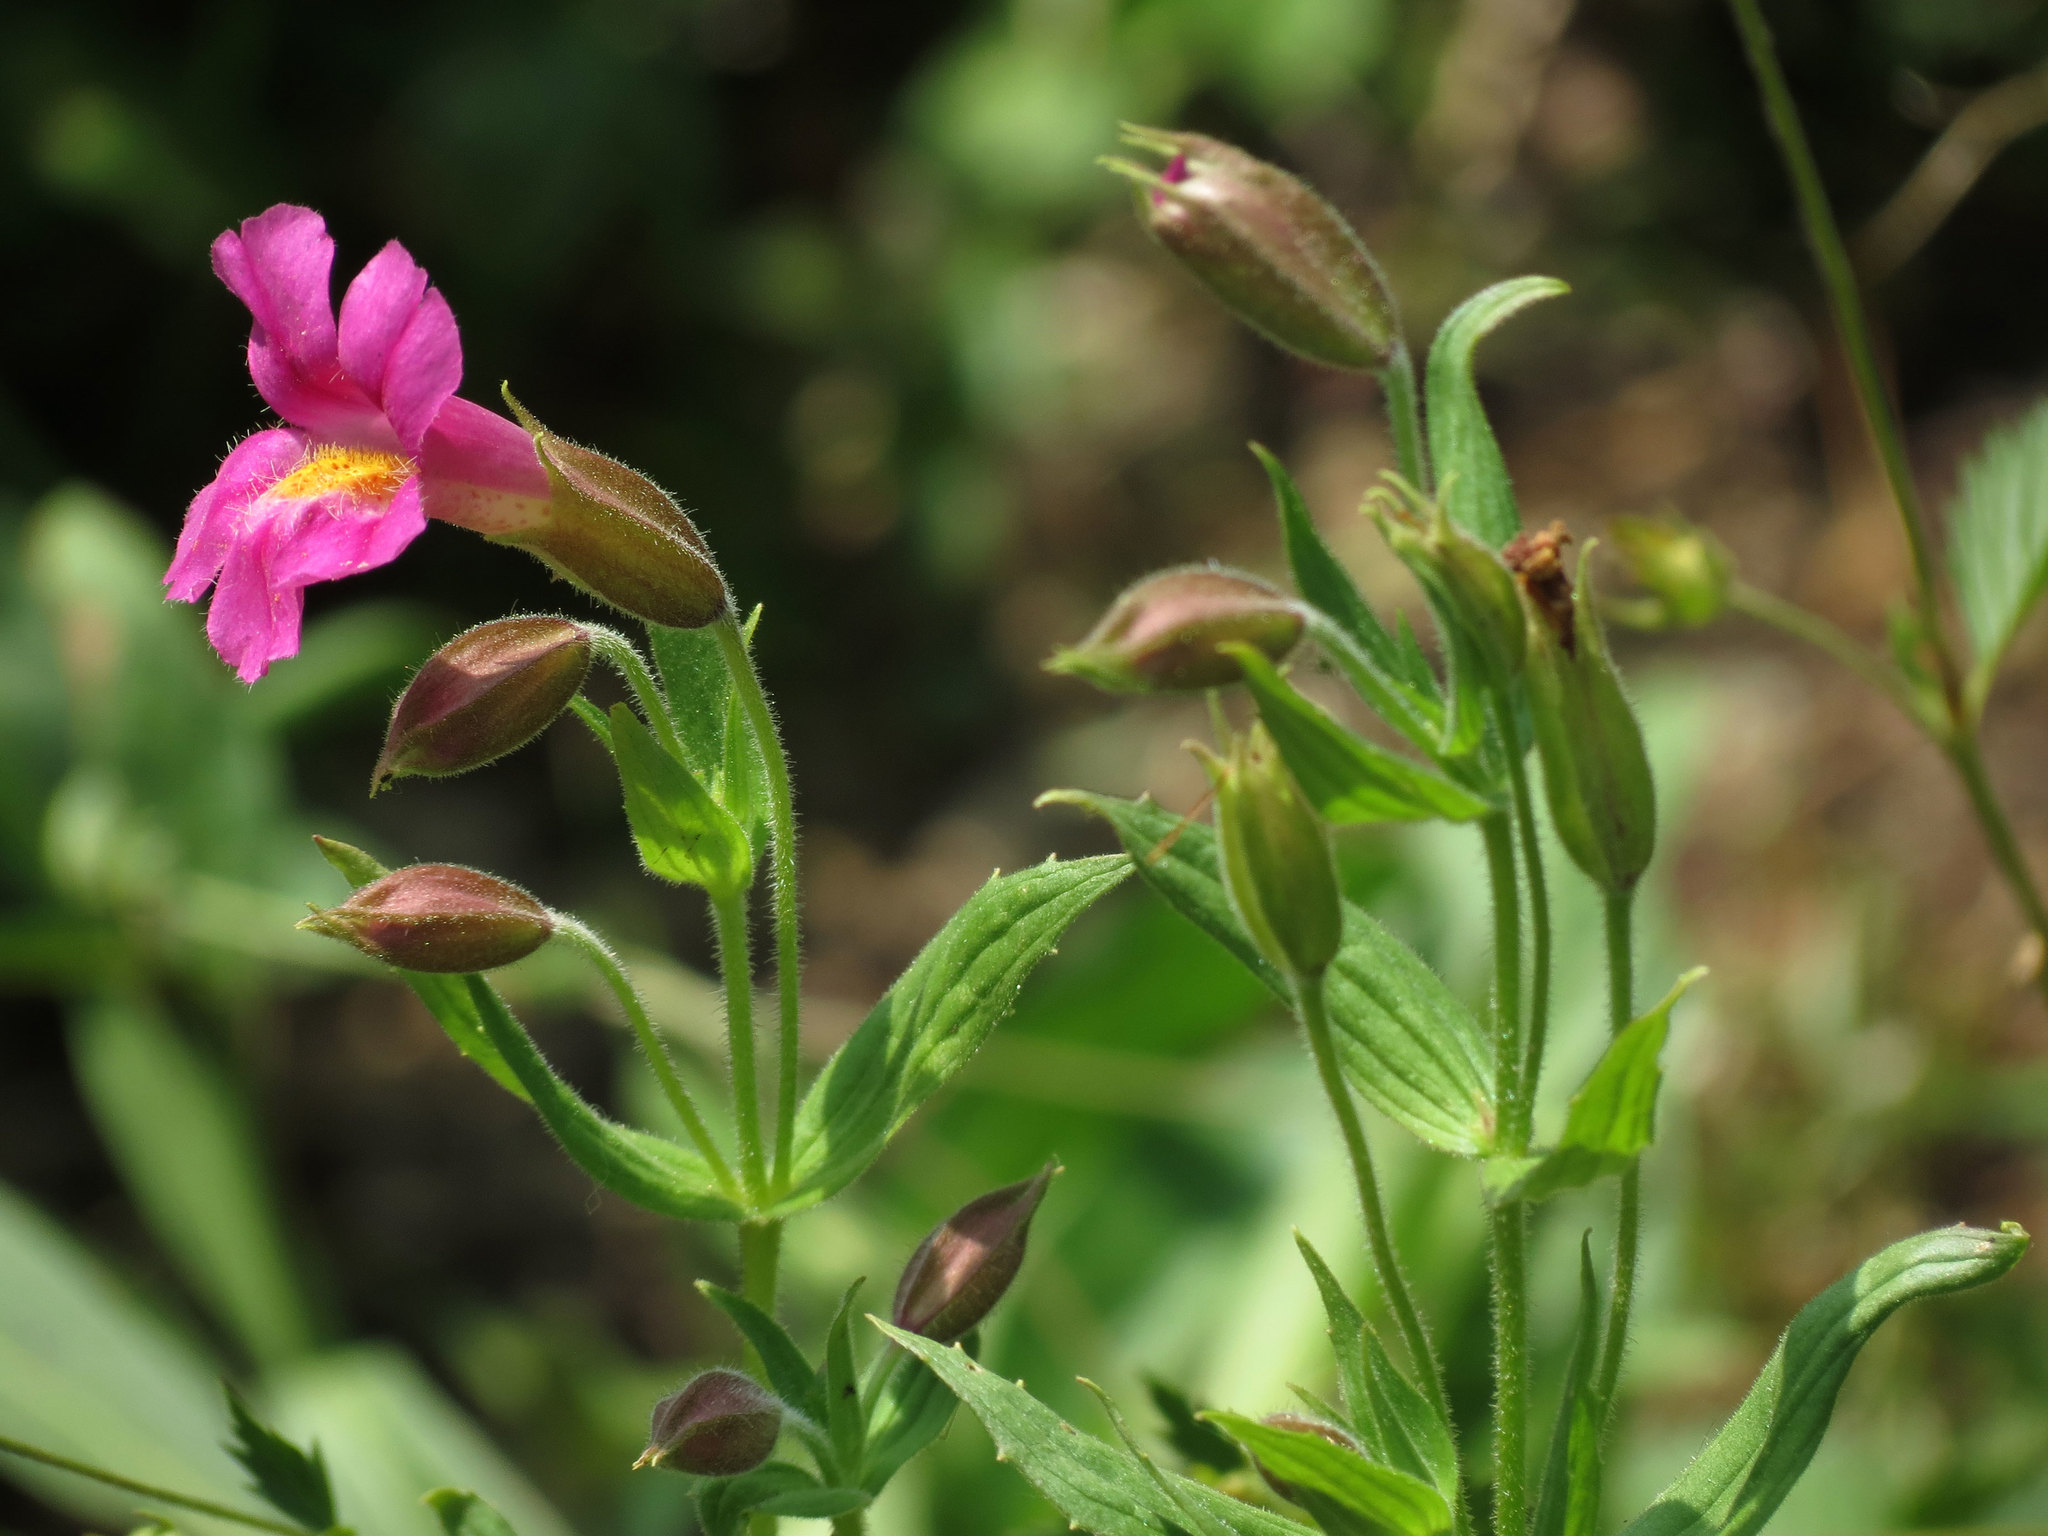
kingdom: Plantae
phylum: Tracheophyta
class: Magnoliopsida
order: Lamiales
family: Phrymaceae
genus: Erythranthe
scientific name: Erythranthe lewisii
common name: Lewis's monkey-flower
